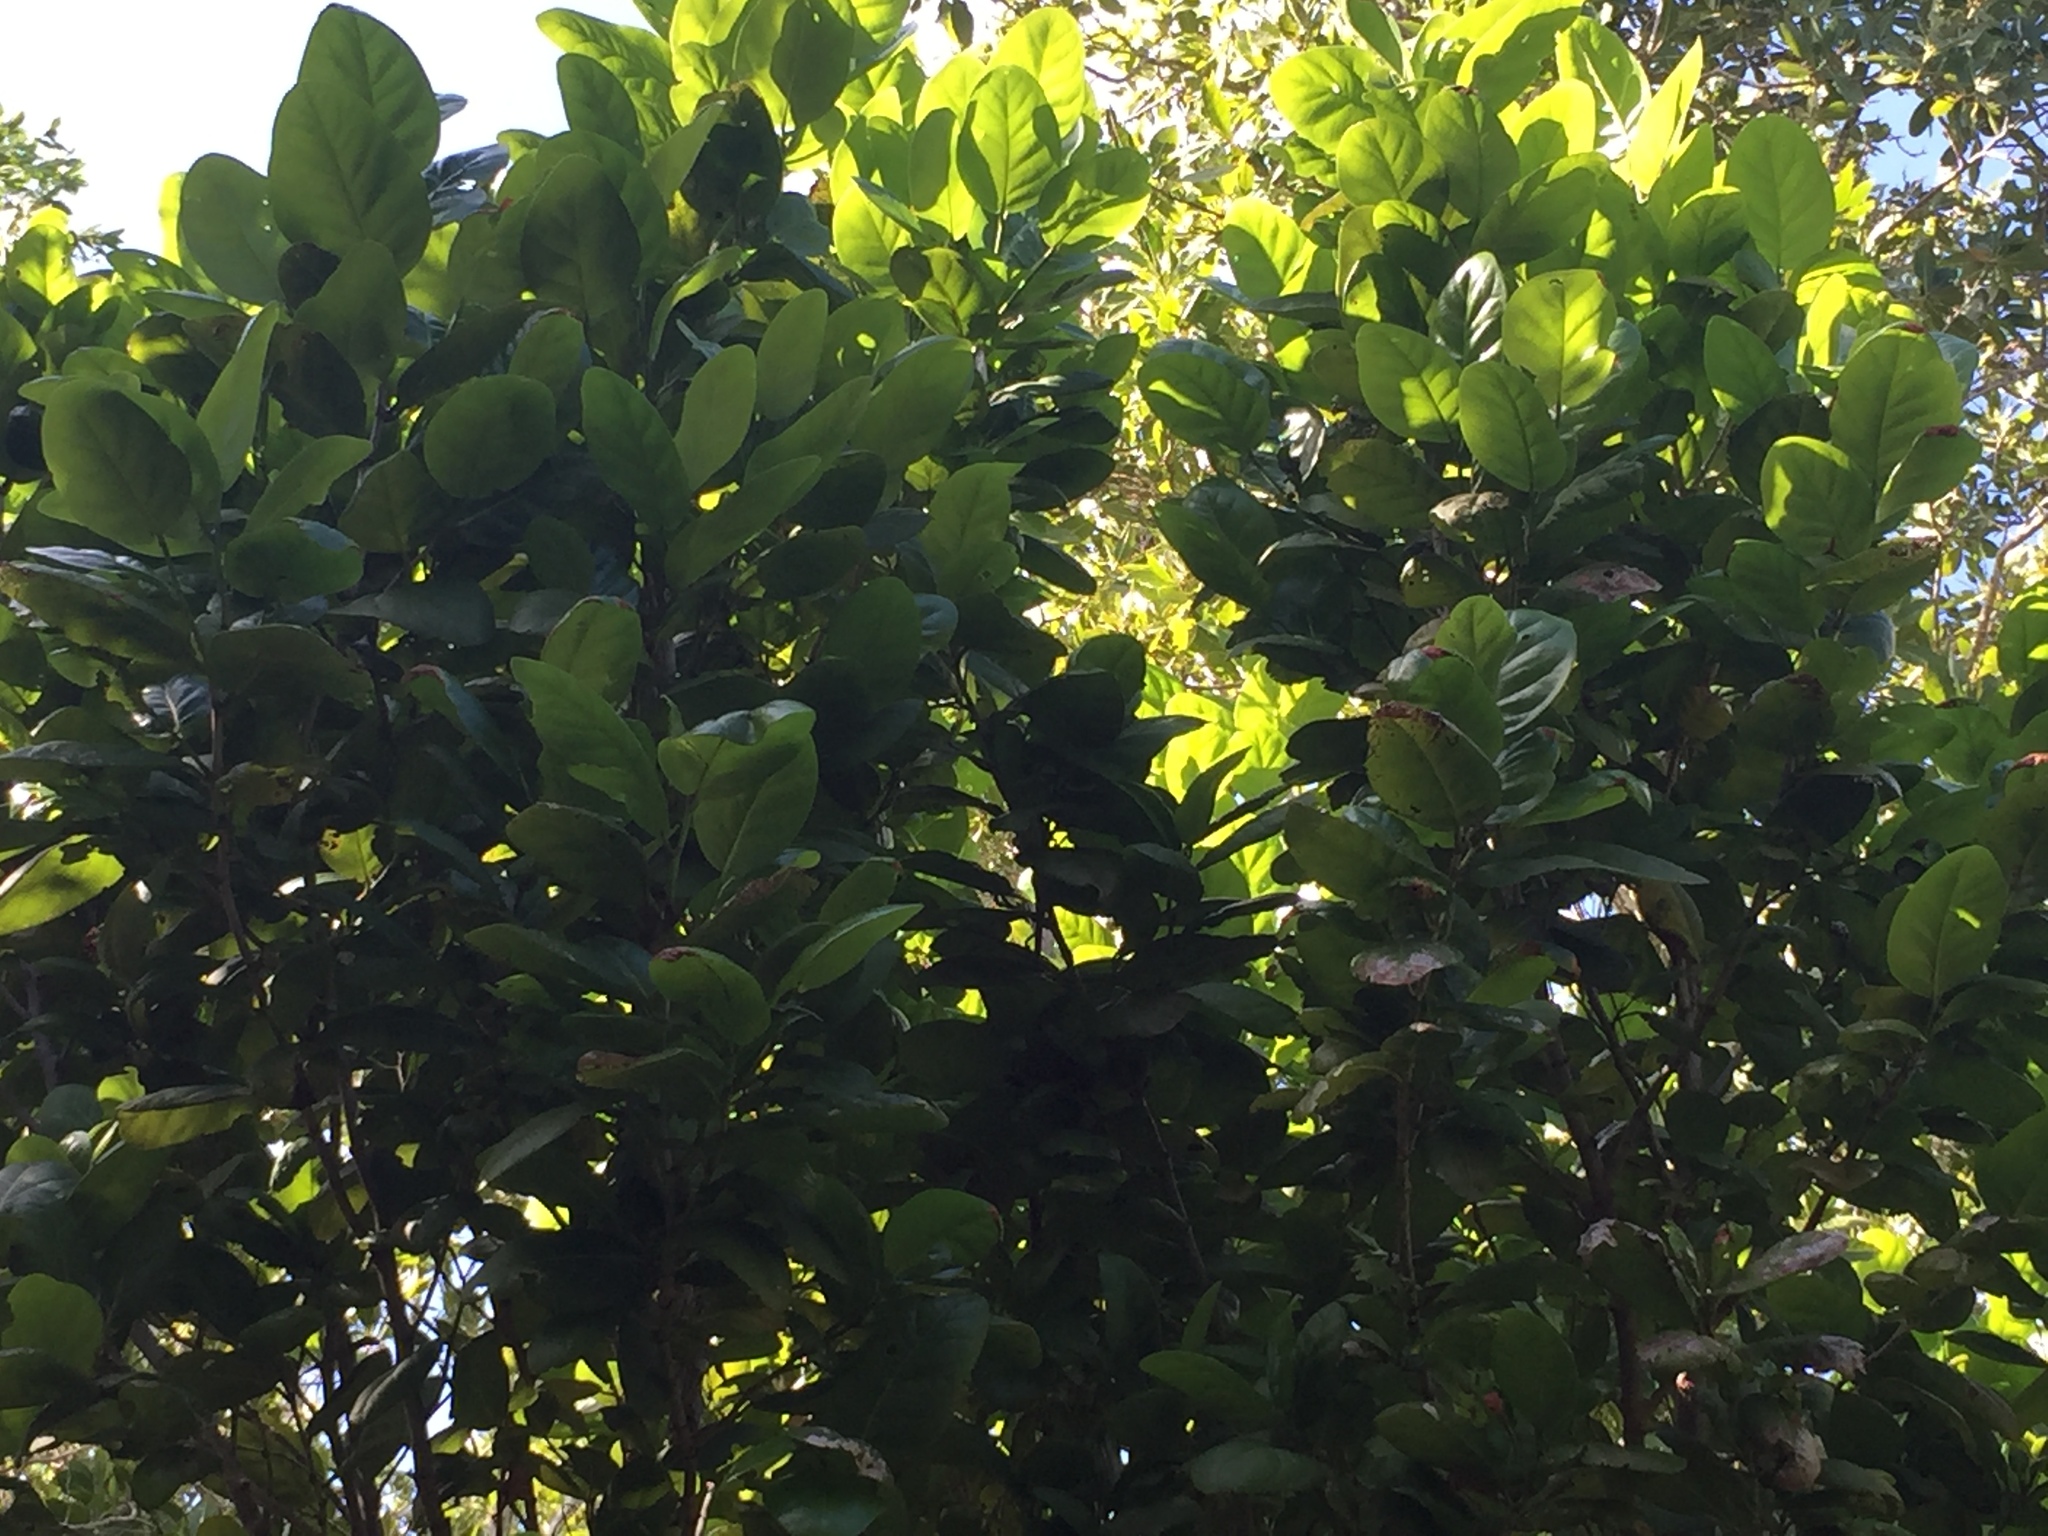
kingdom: Plantae
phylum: Tracheophyta
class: Magnoliopsida
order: Caryophyllales
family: Polygonaceae
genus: Coccoloba
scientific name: Coccoloba diversifolia
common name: Pigeon-plum
